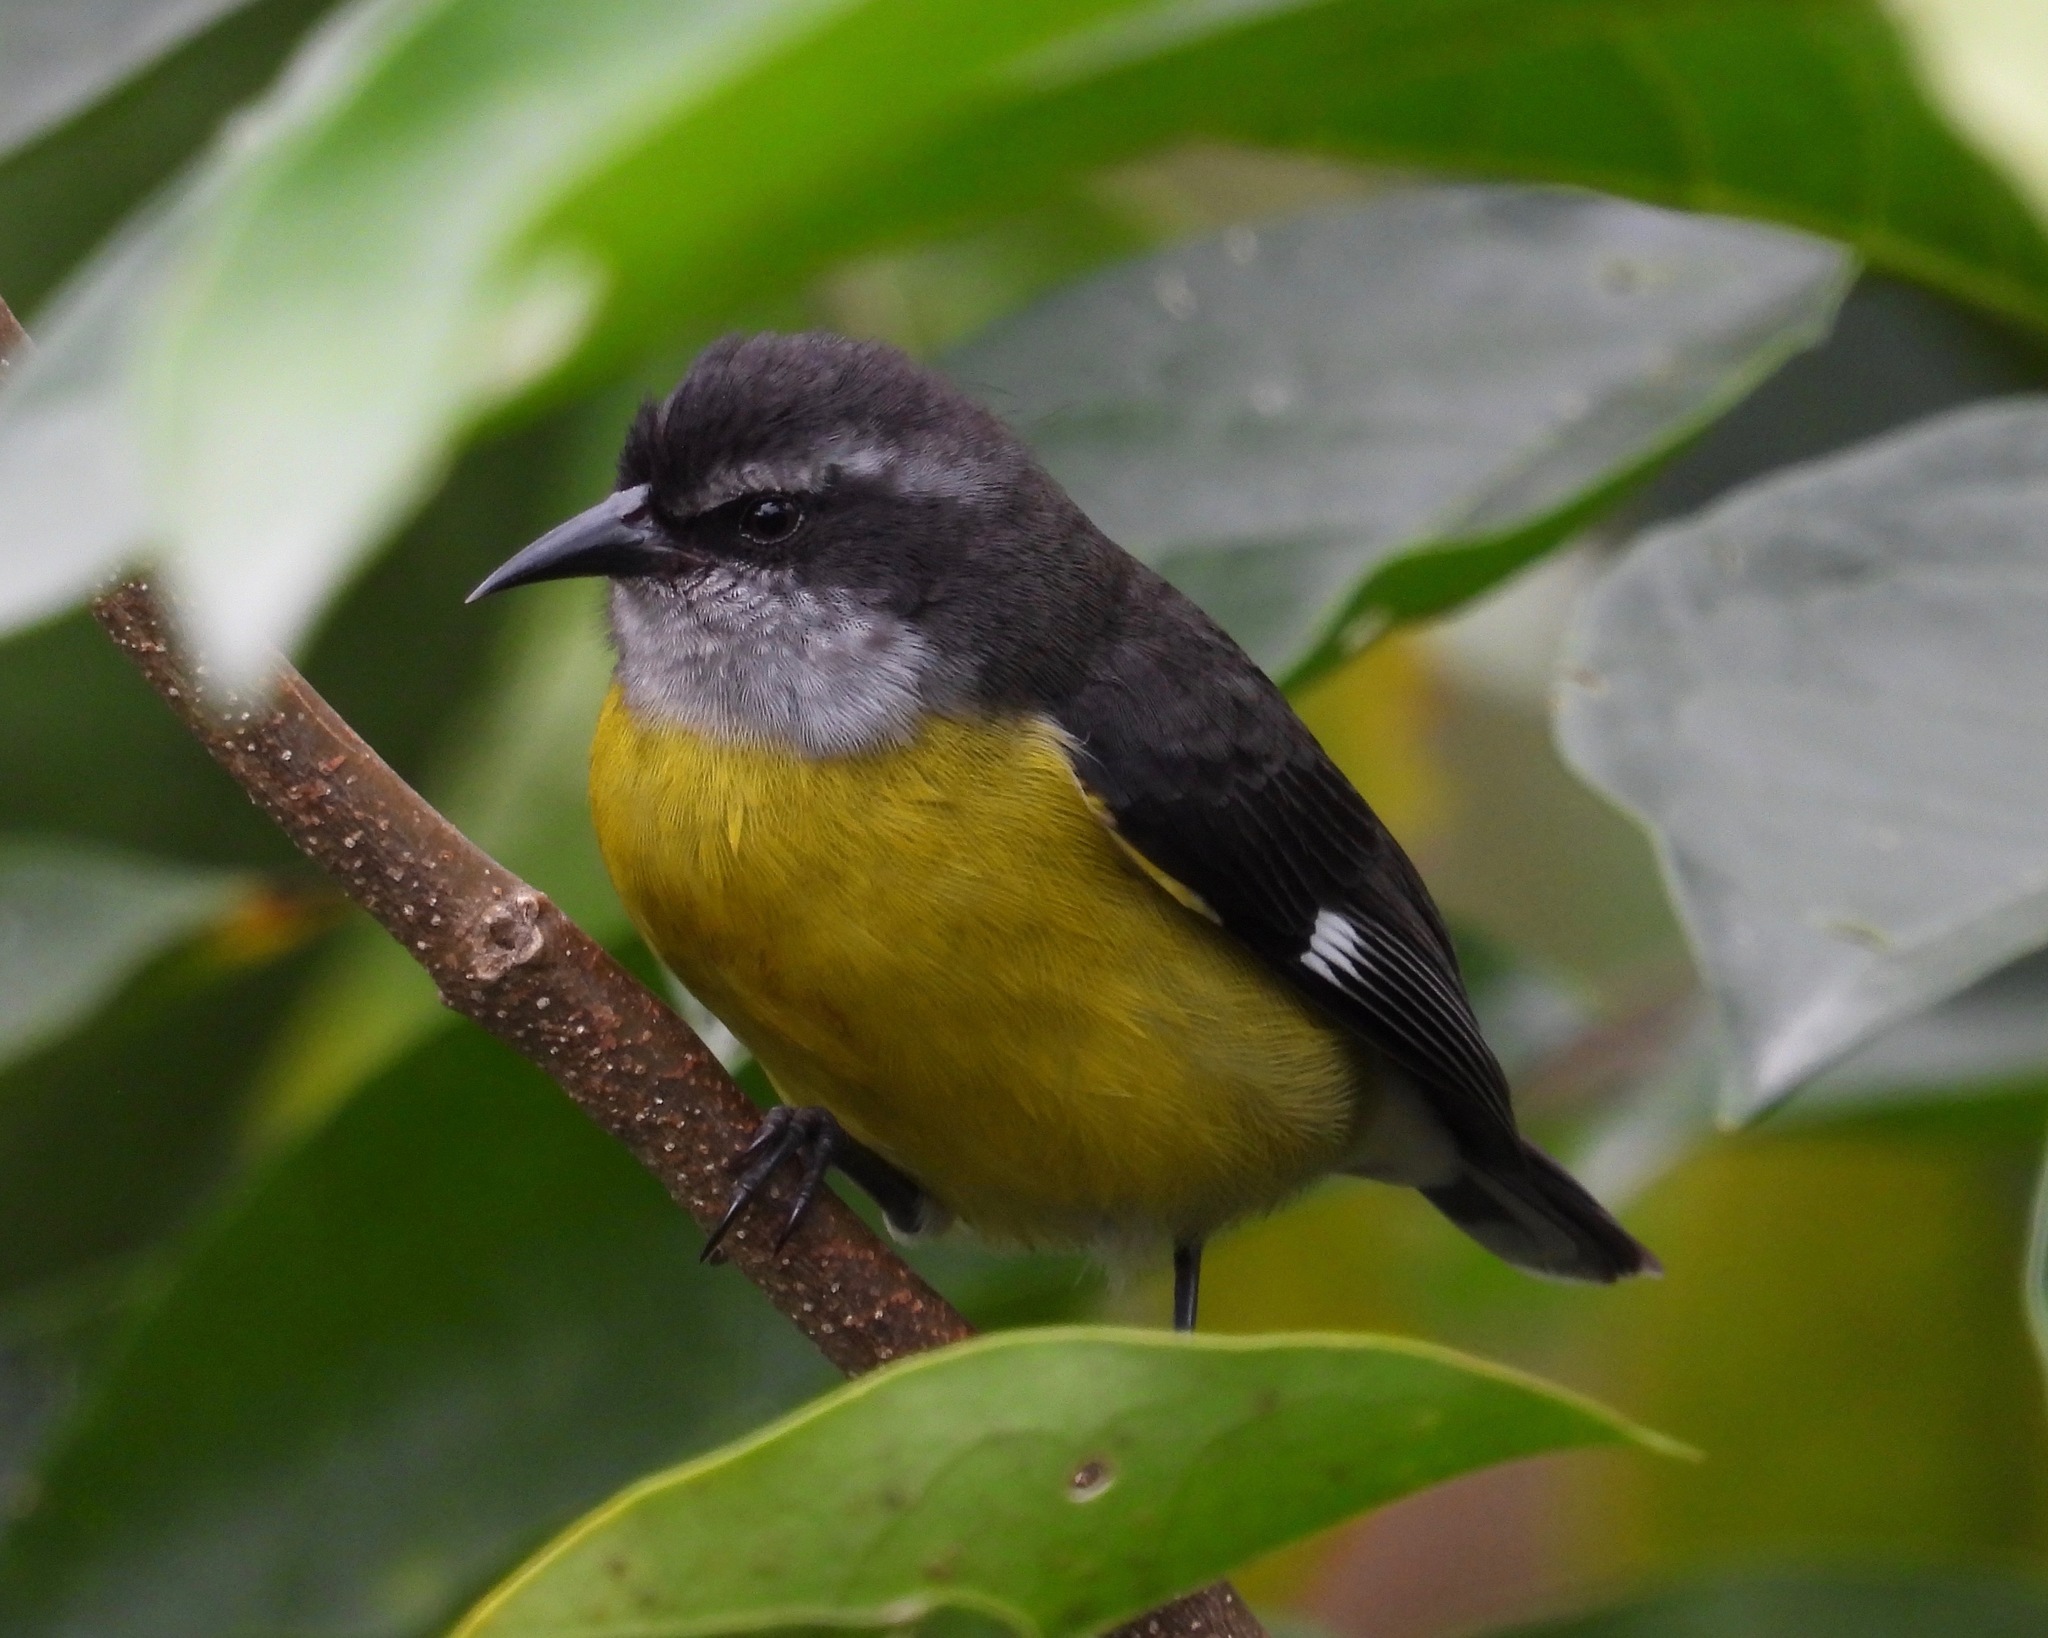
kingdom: Animalia
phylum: Chordata
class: Aves
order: Passeriformes
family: Thraupidae
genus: Coereba
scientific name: Coereba flaveola
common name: Bananaquit
